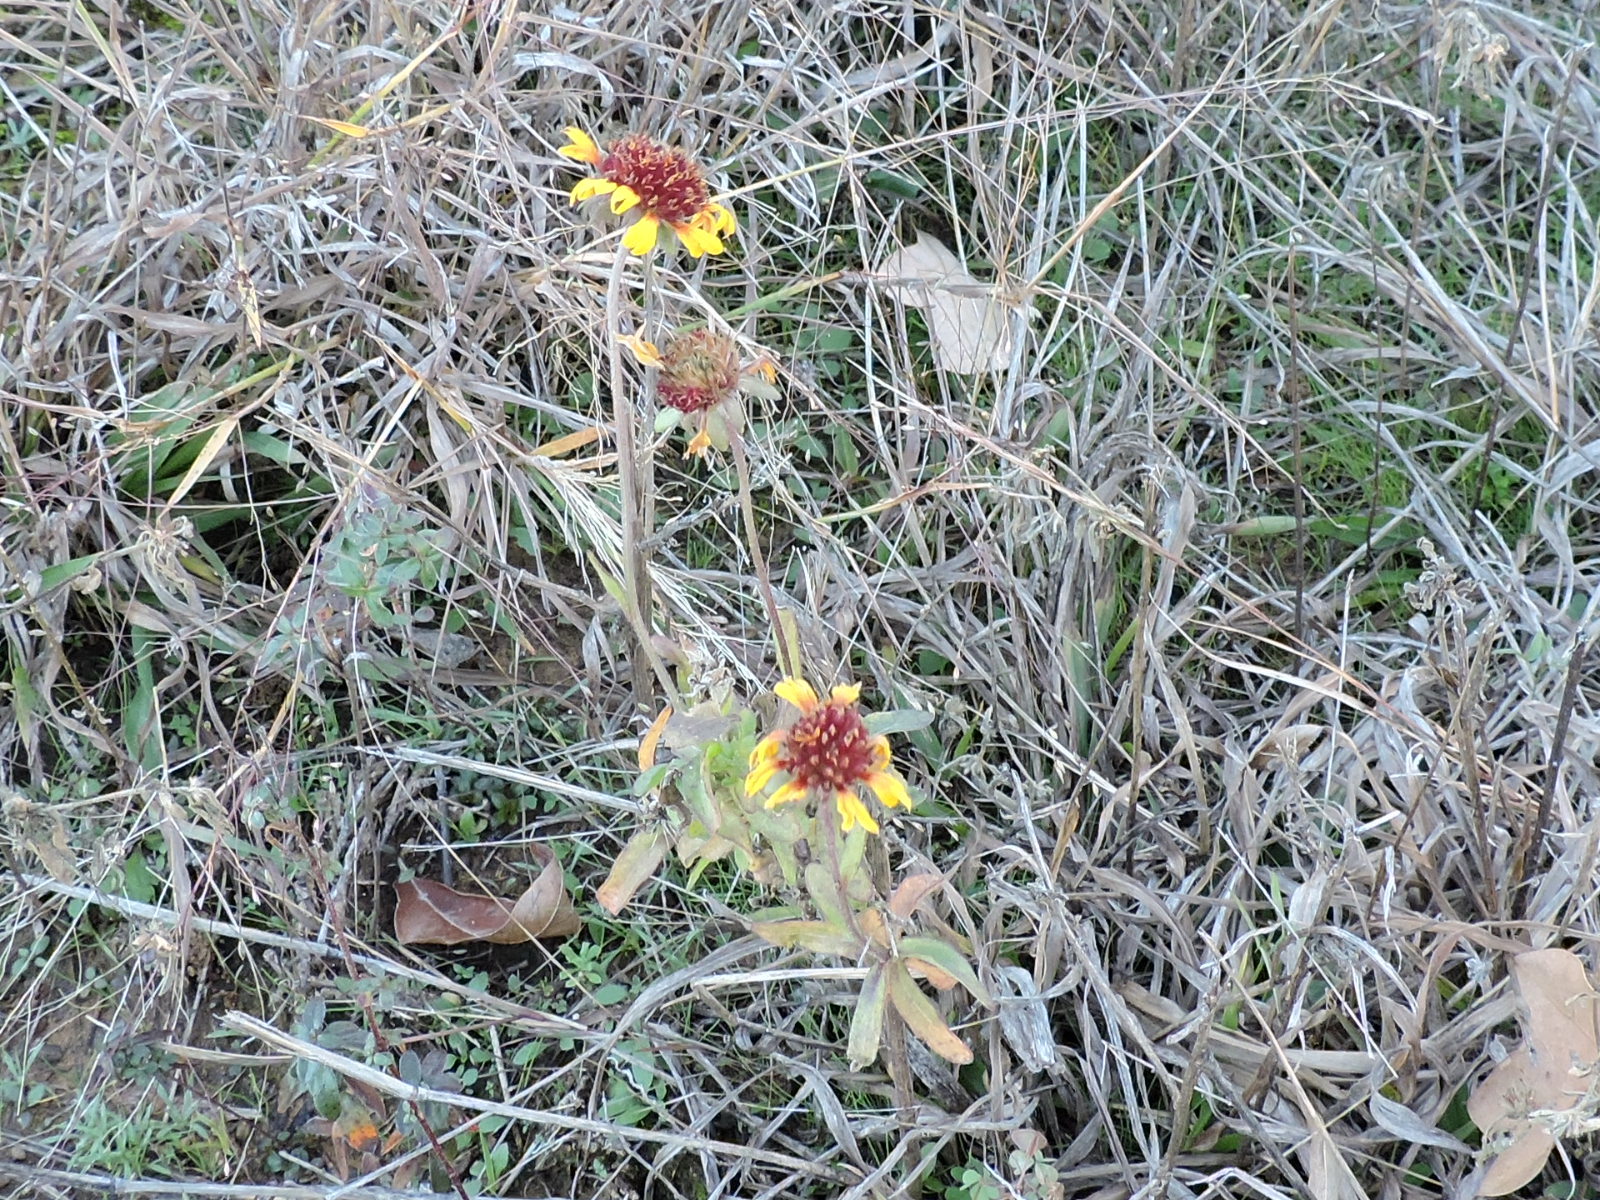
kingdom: Plantae
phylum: Tracheophyta
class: Magnoliopsida
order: Asterales
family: Asteraceae
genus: Gaillardia
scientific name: Gaillardia aestivalis
